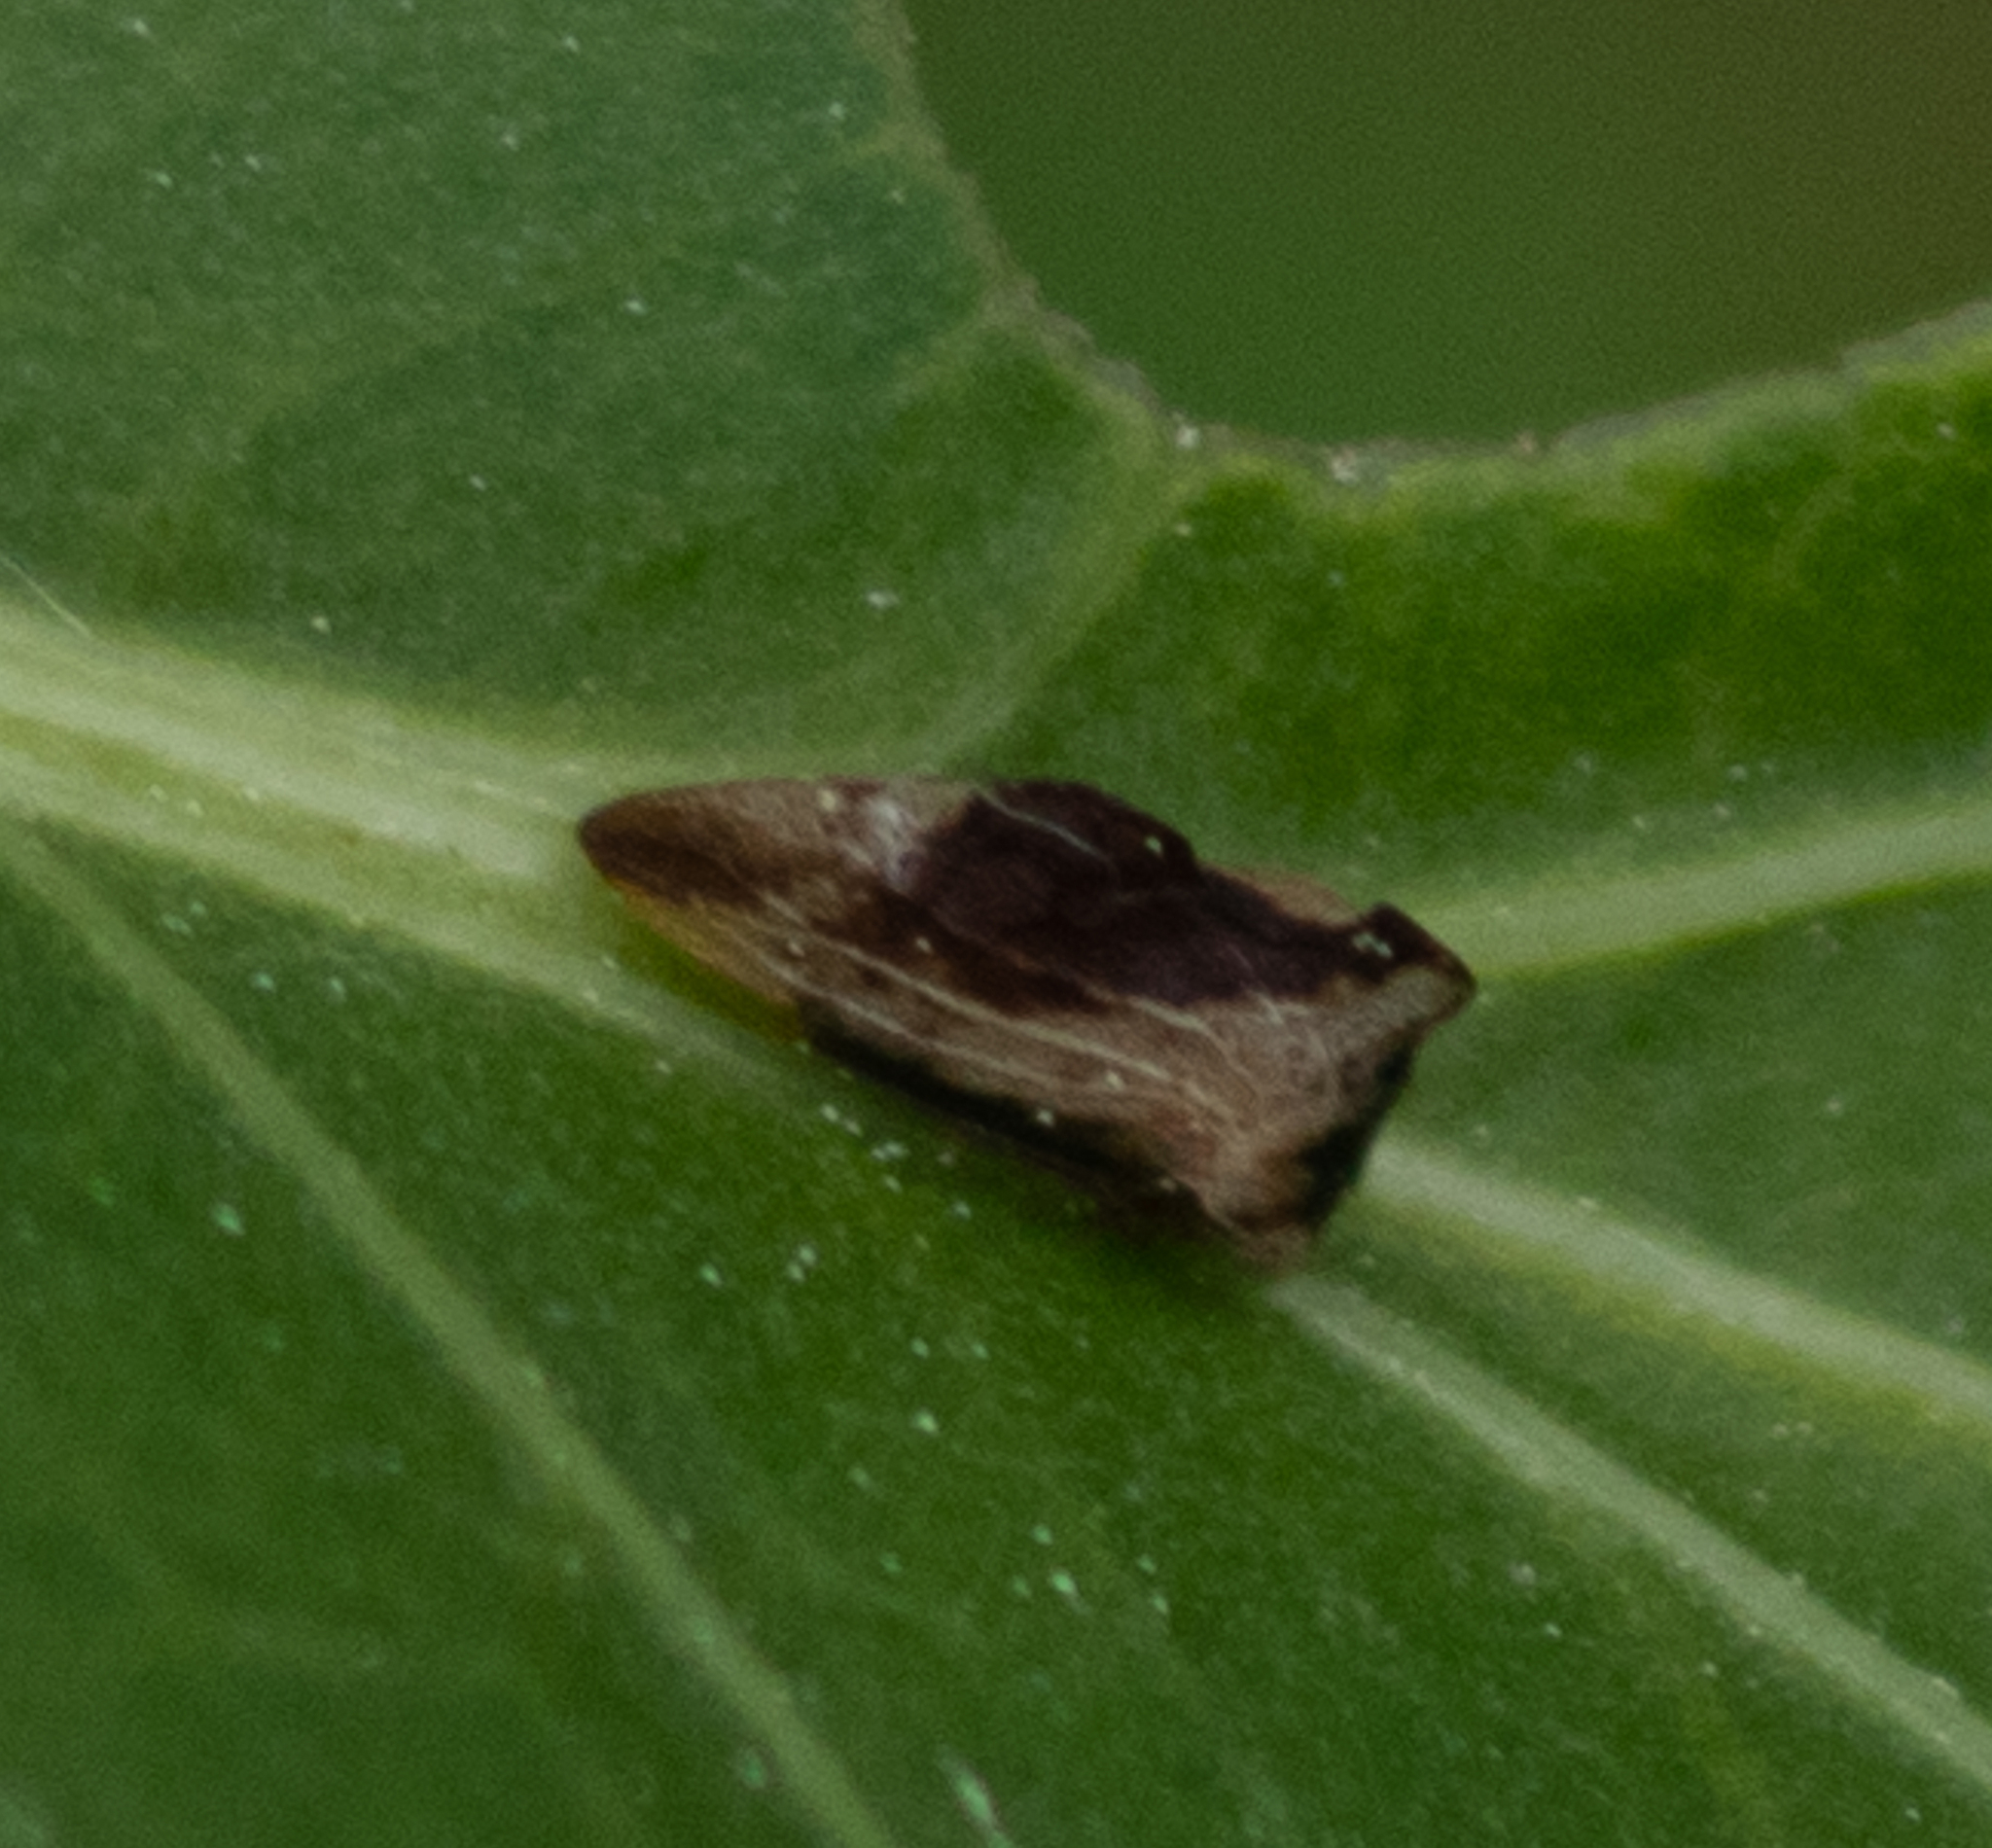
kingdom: Animalia
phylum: Arthropoda
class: Insecta
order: Hemiptera
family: Membracidae
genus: Entylia
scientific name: Entylia carinata
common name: Keeled treehopper
